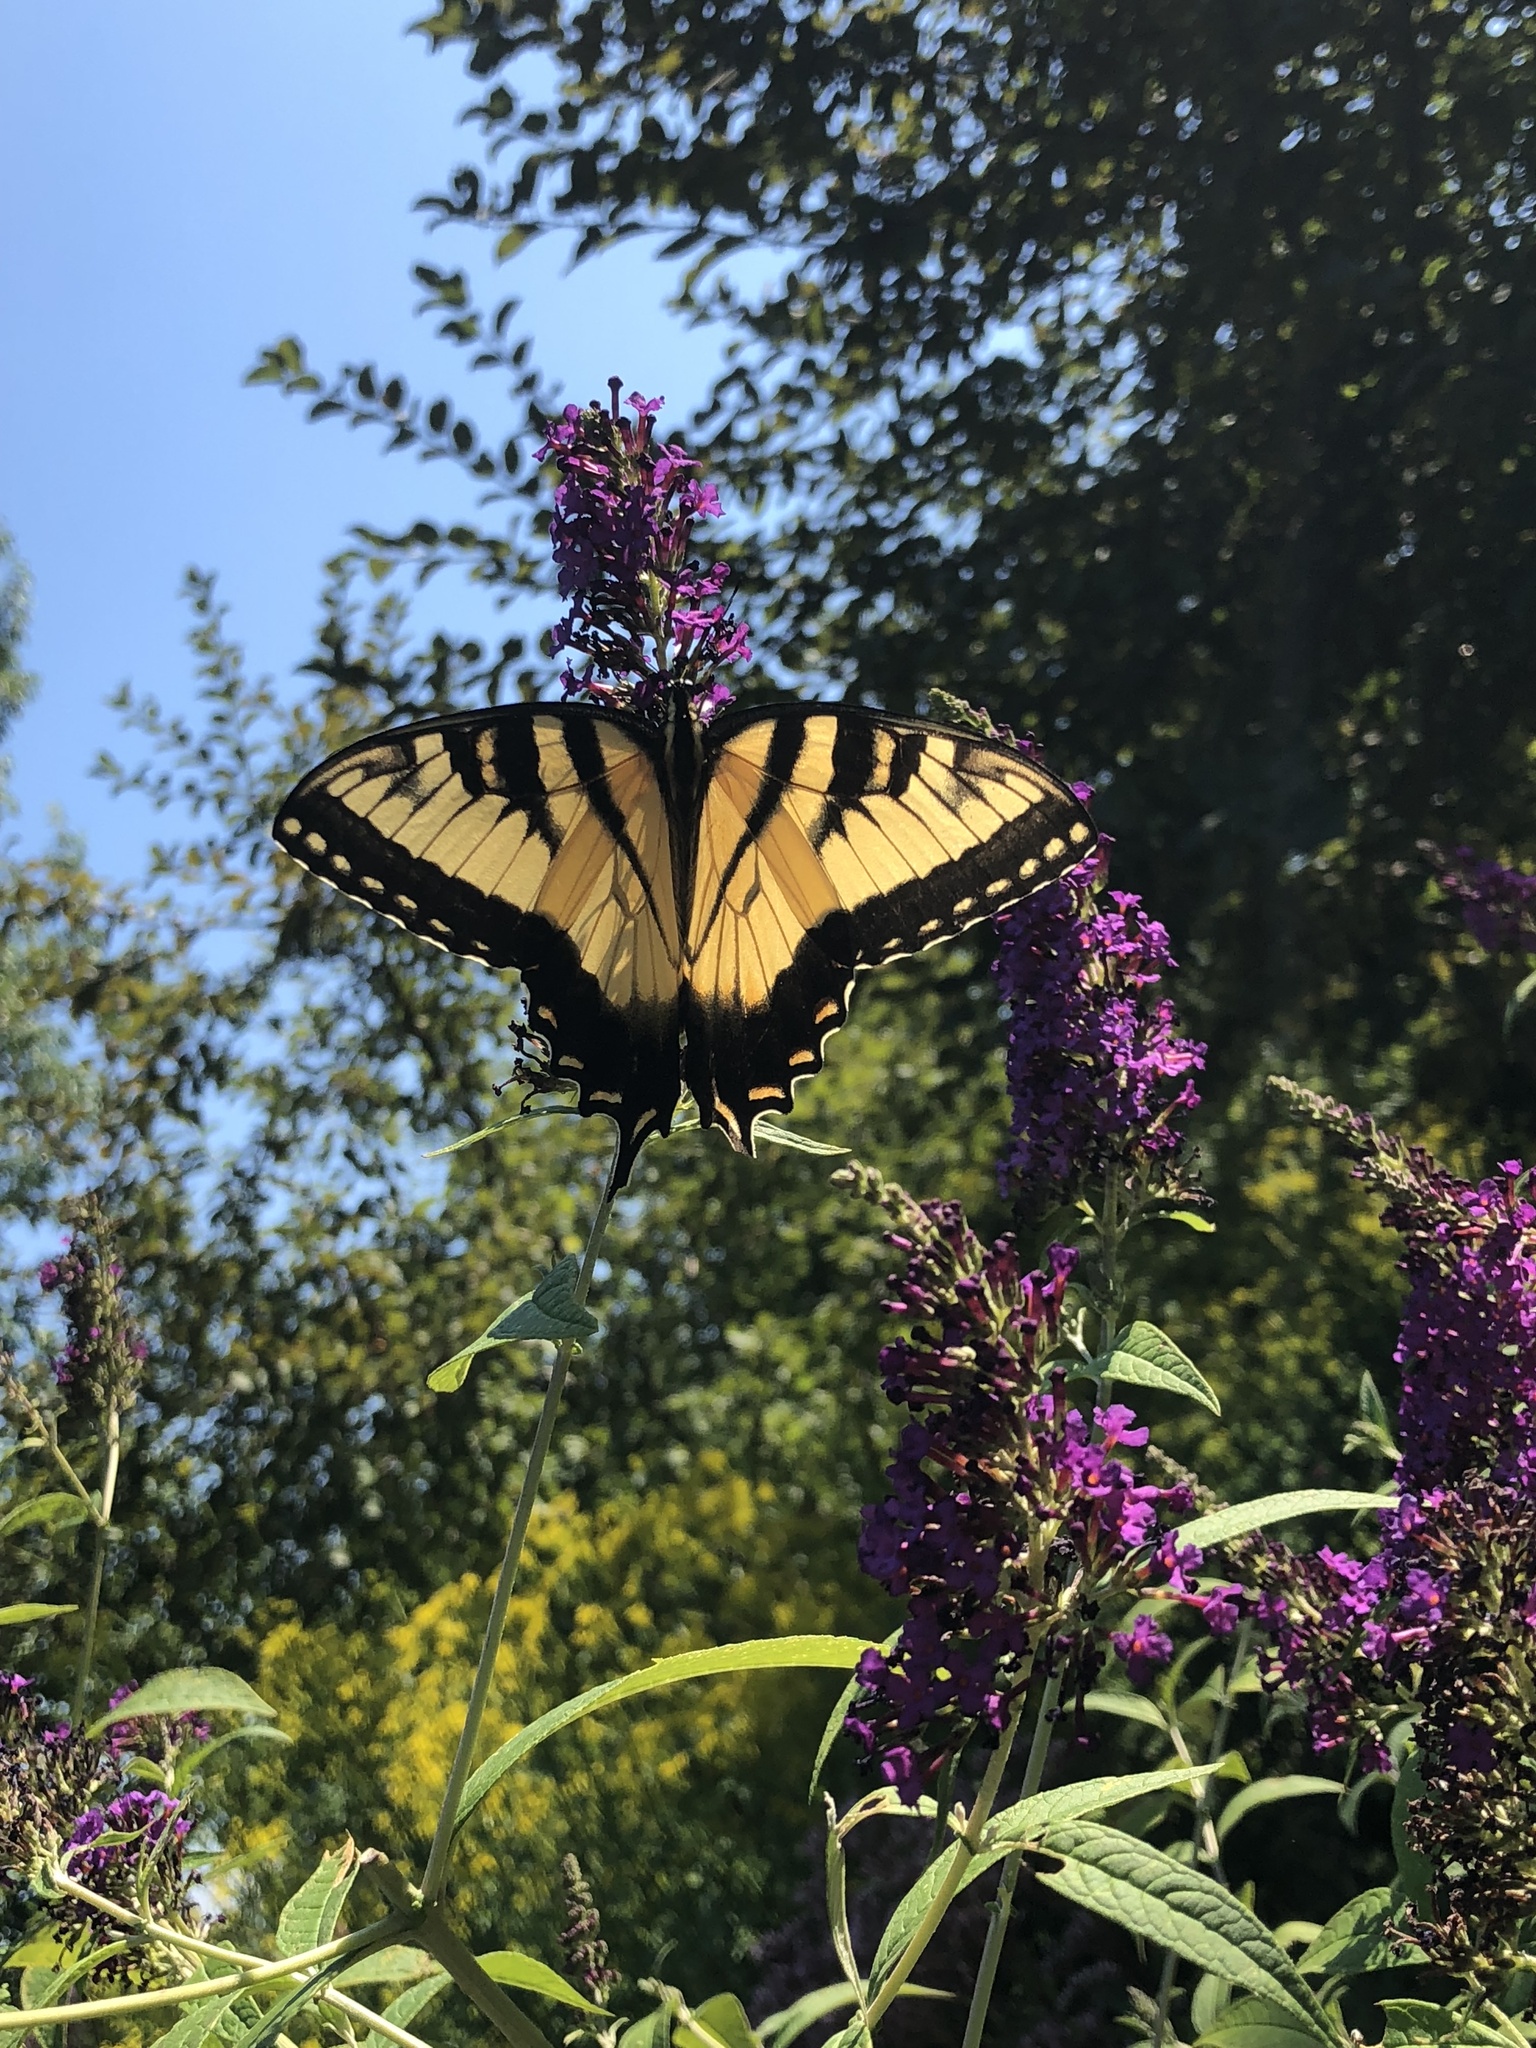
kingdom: Animalia
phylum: Arthropoda
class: Insecta
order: Lepidoptera
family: Papilionidae
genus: Papilio
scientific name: Papilio glaucus
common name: Tiger swallowtail
